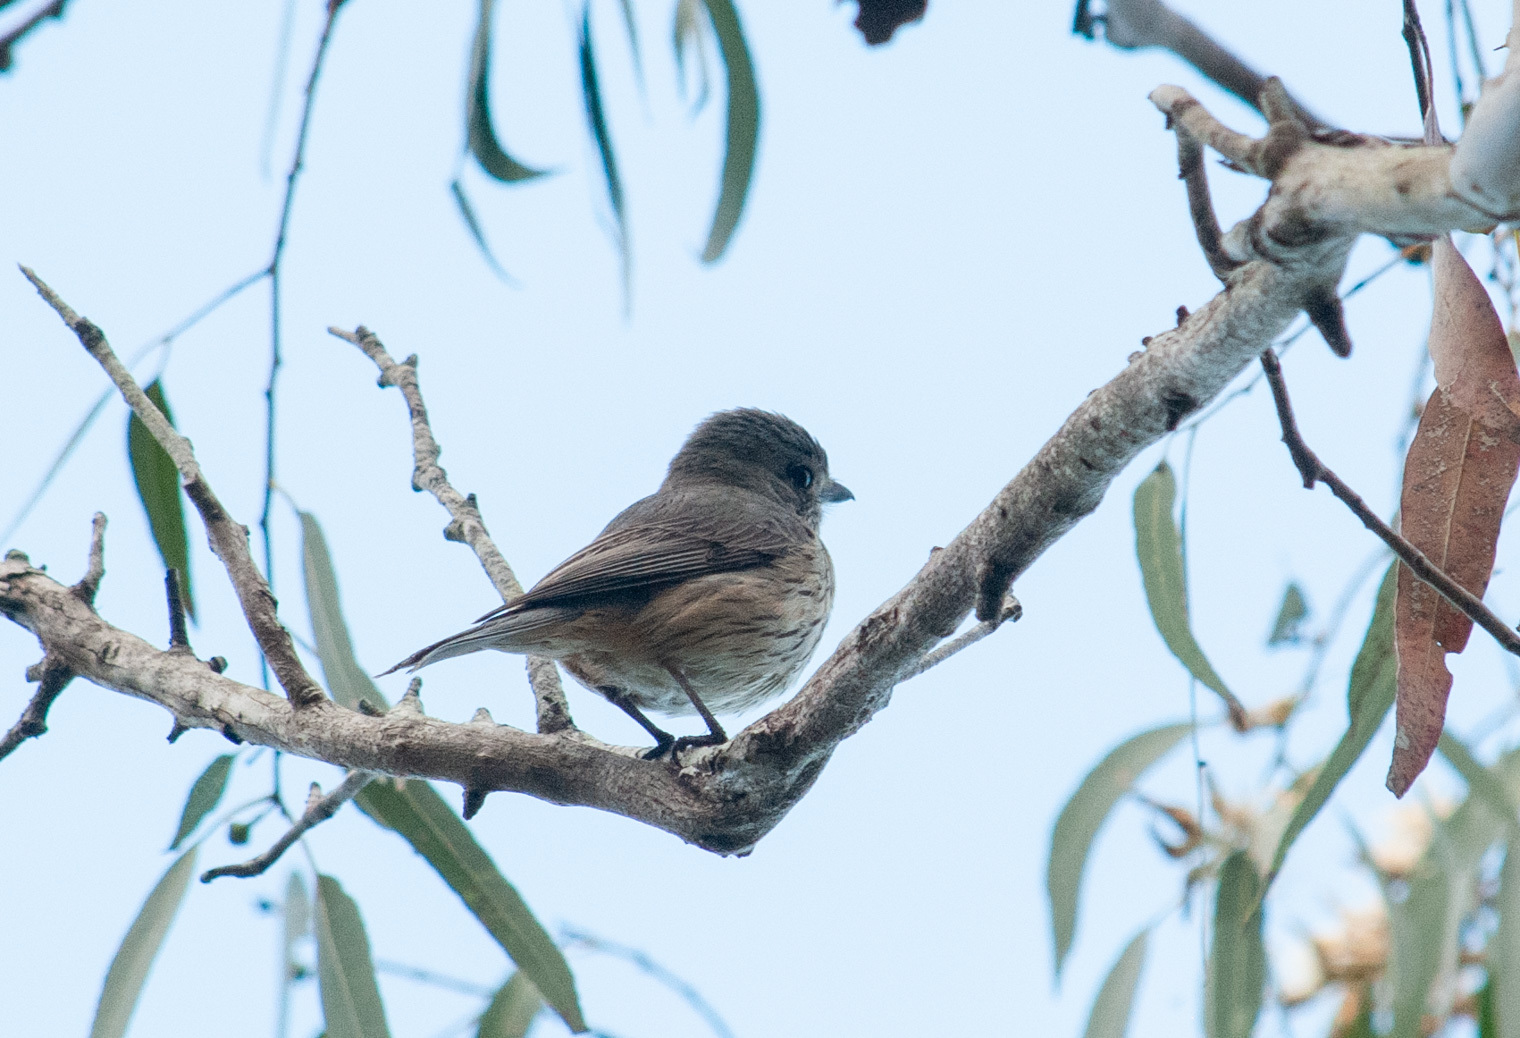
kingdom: Animalia
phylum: Chordata
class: Aves
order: Passeriformes
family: Pachycephalidae
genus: Pachycephala
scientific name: Pachycephala rufiventris
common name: Rufous whistler
